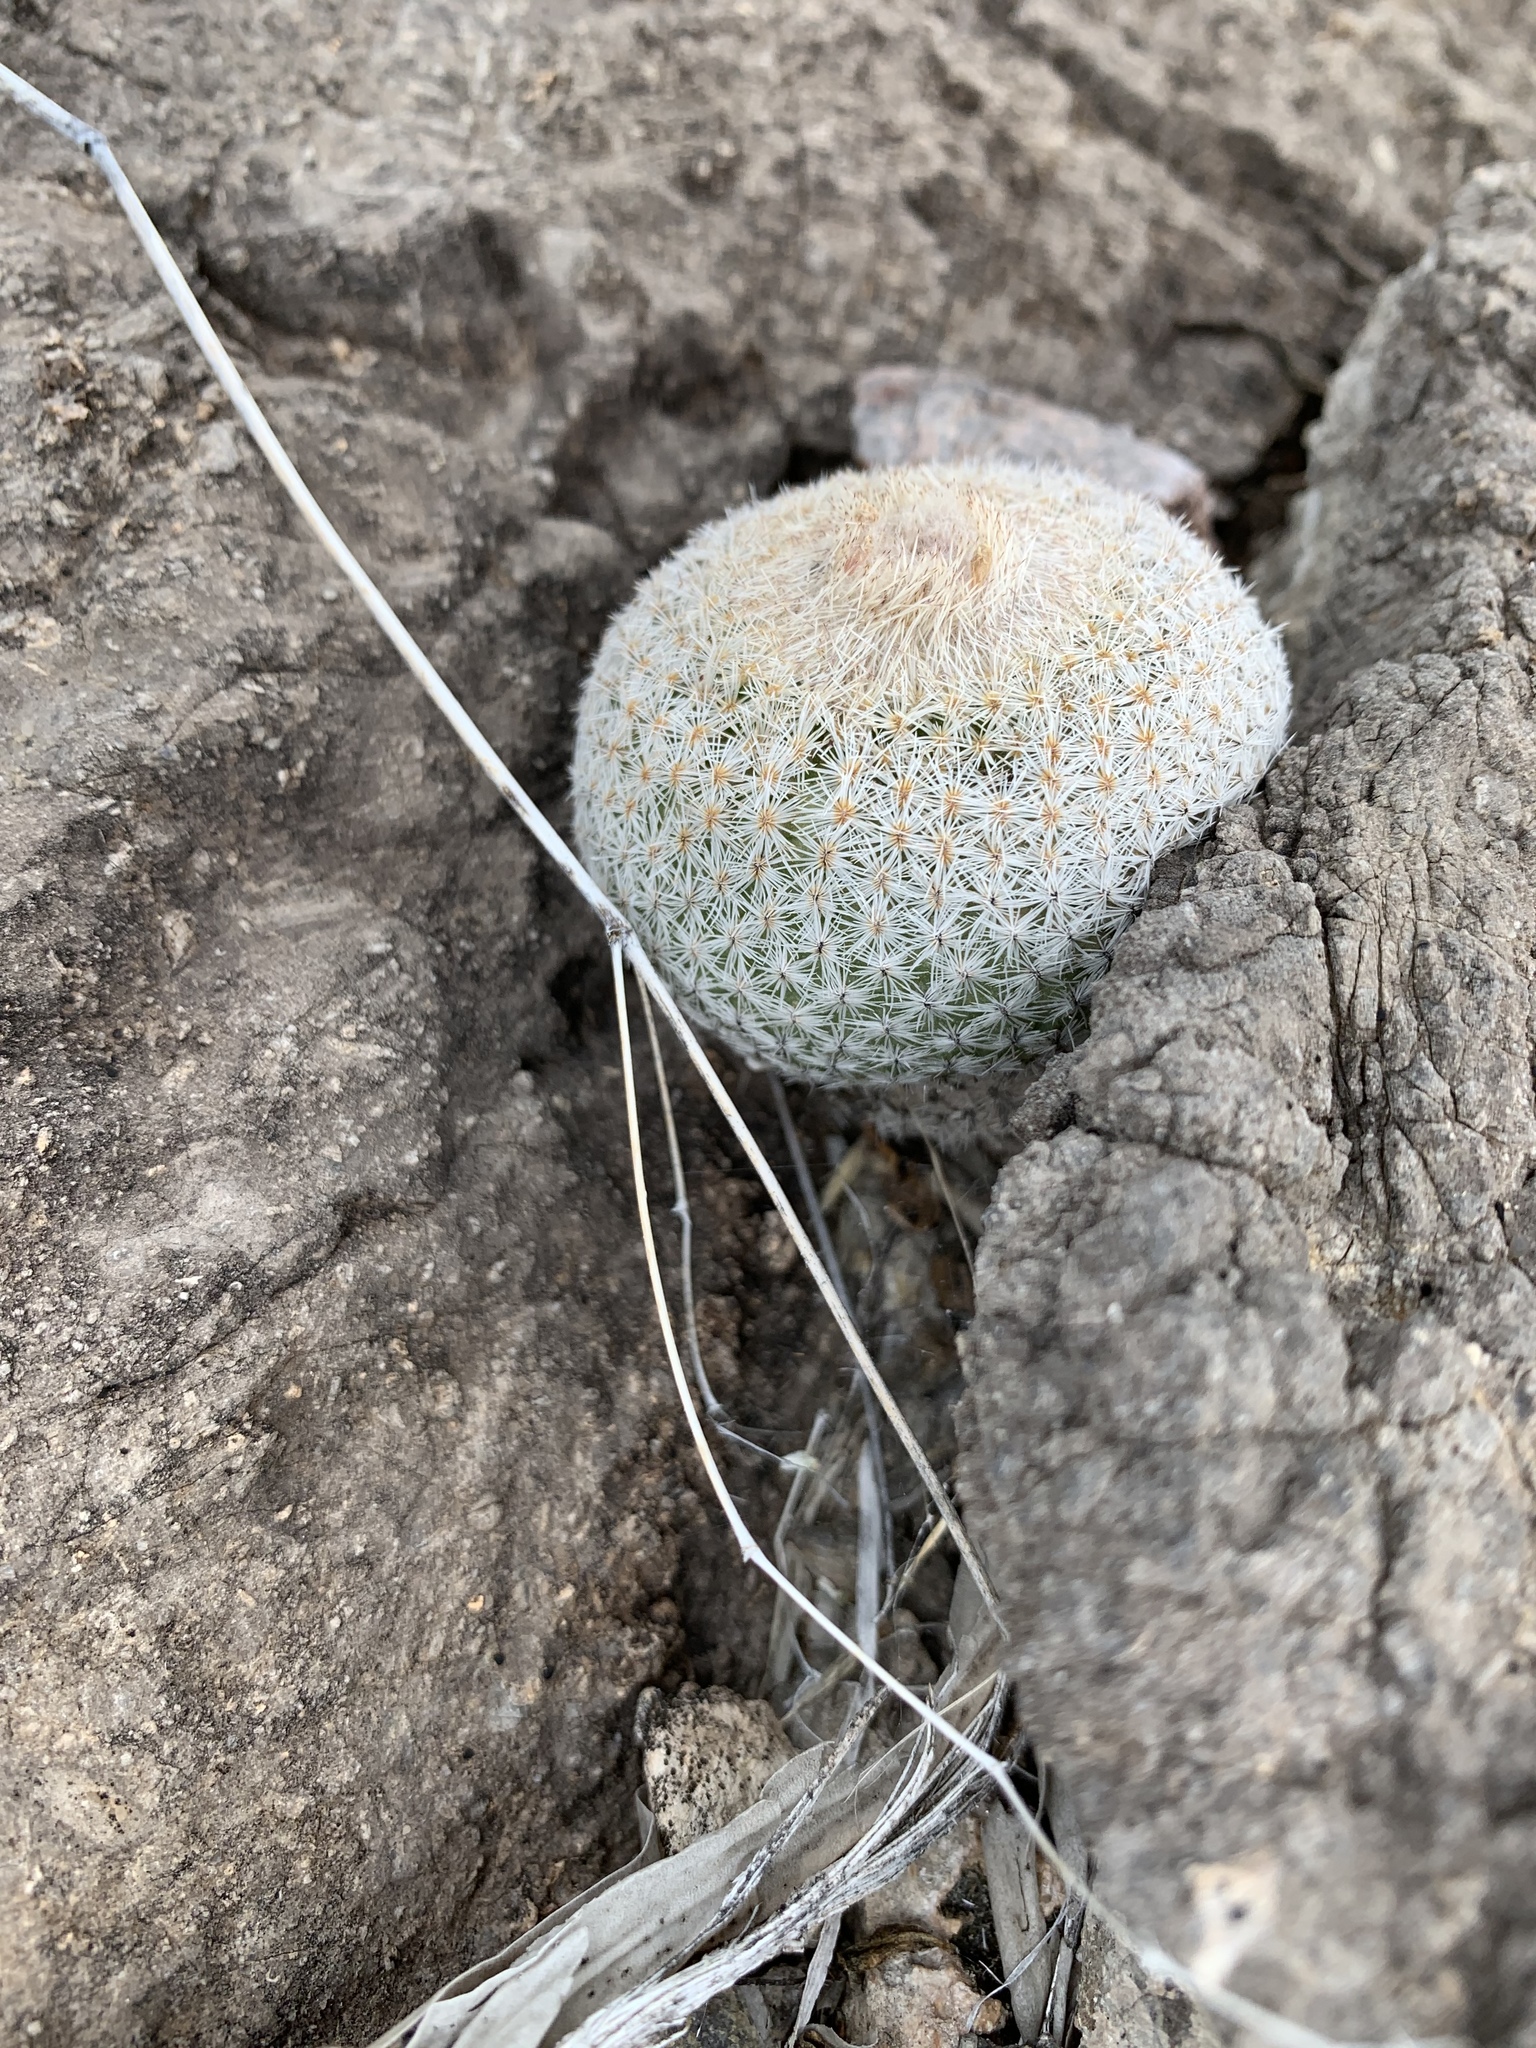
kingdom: Plantae
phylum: Tracheophyta
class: Magnoliopsida
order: Caryophyllales
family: Cactaceae
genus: Epithelantha
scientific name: Epithelantha micromeris
